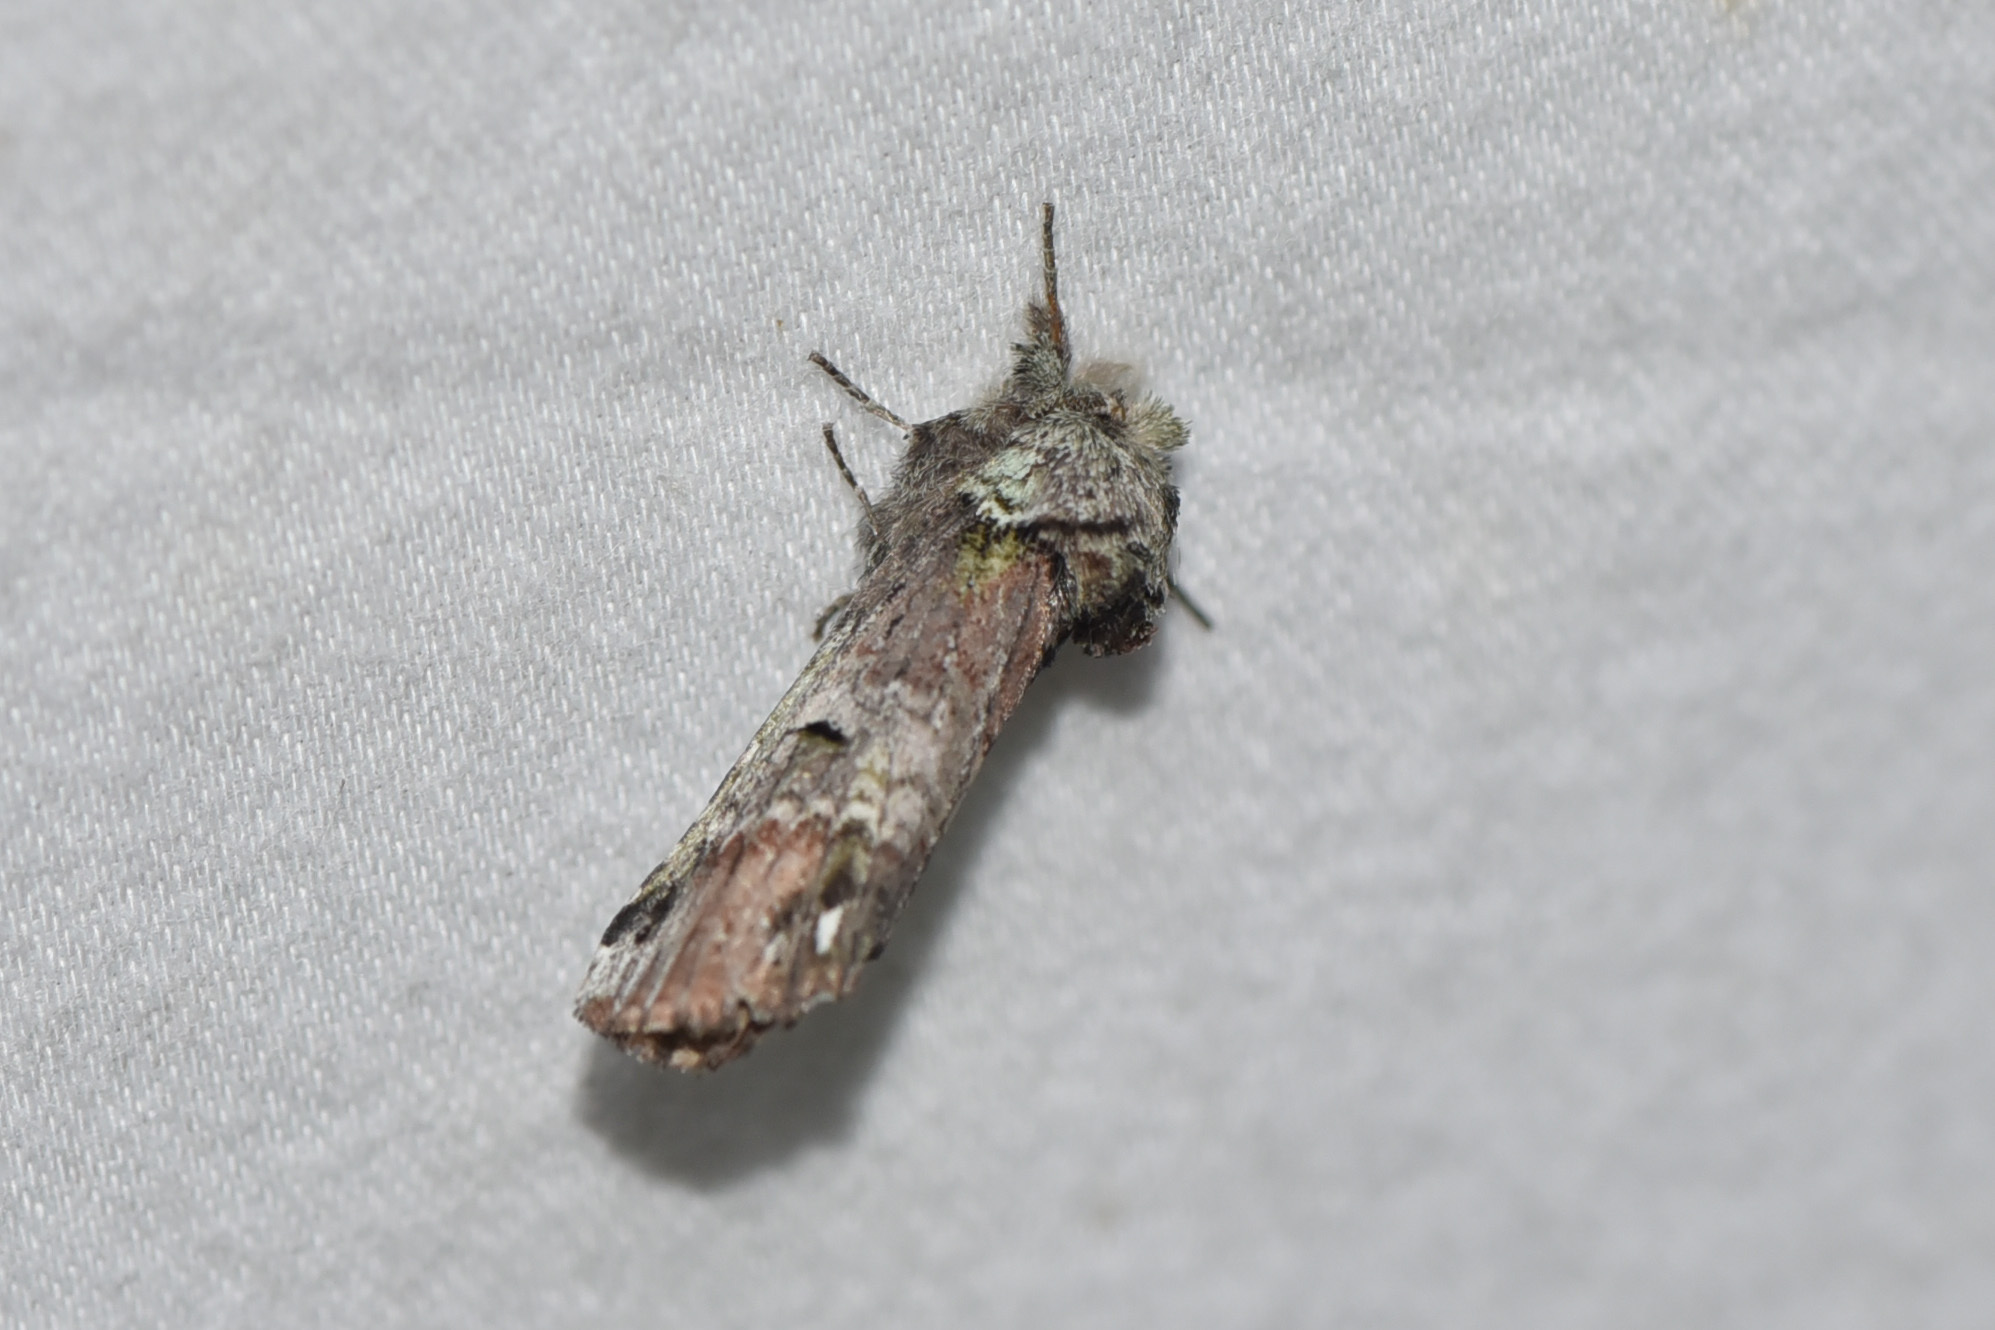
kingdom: Animalia
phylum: Arthropoda
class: Insecta
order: Lepidoptera
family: Notodontidae
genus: Schizura
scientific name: Schizura
